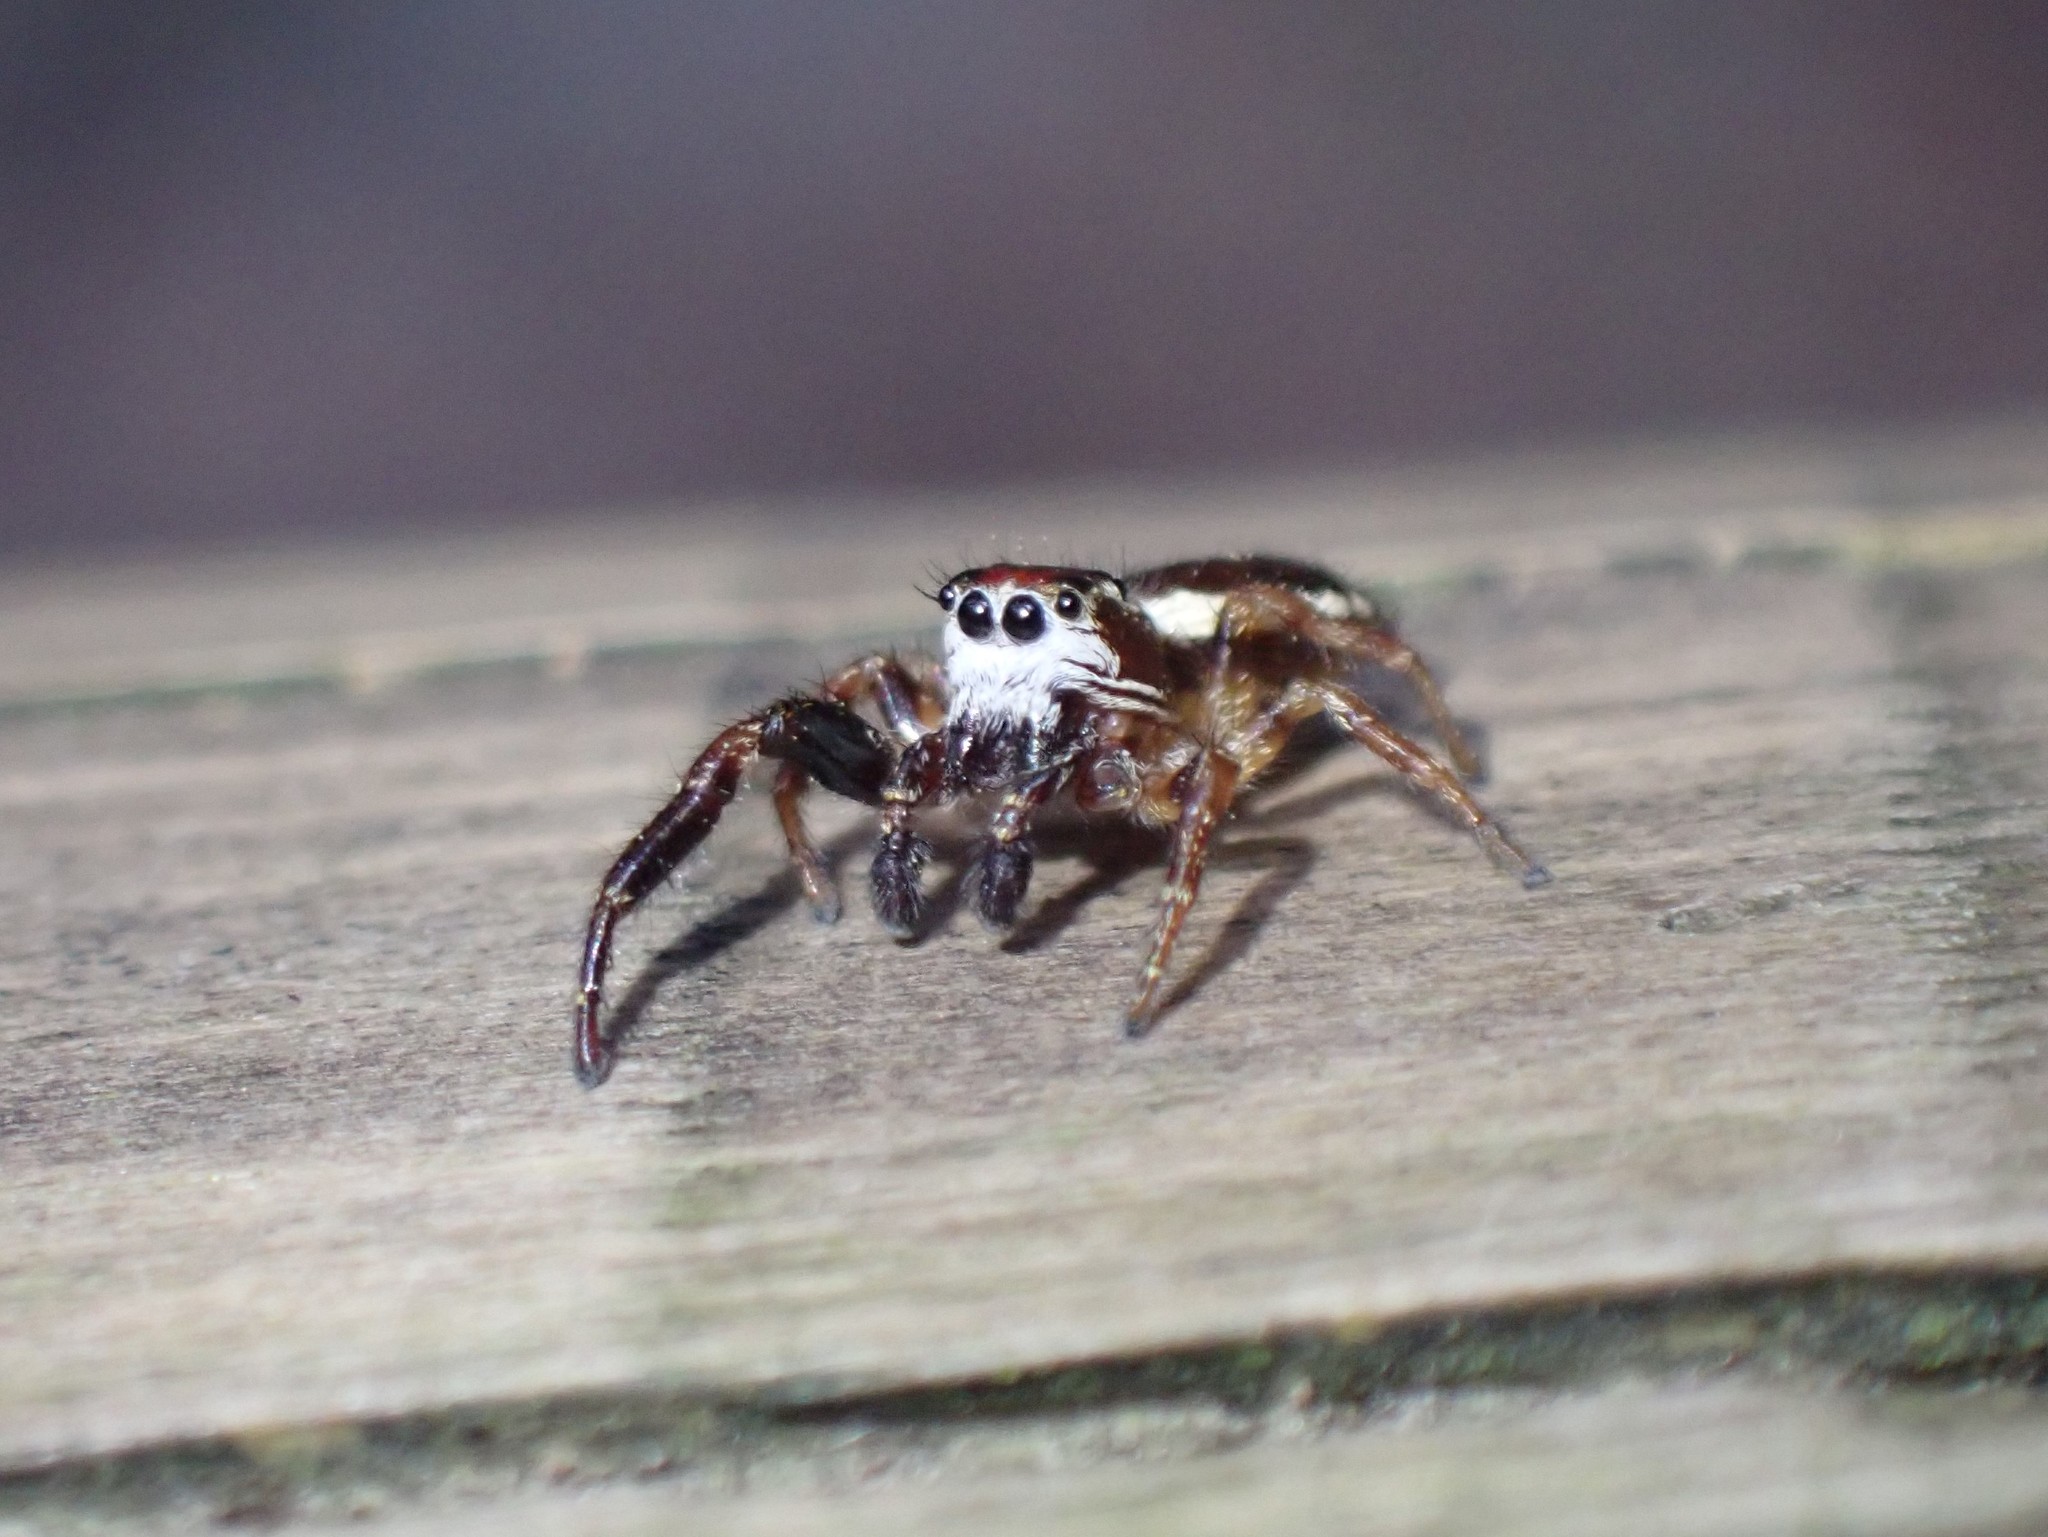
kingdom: Animalia
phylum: Arthropoda
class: Arachnida
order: Araneae
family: Salticidae
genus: Phanias
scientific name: Phanias albeolus
